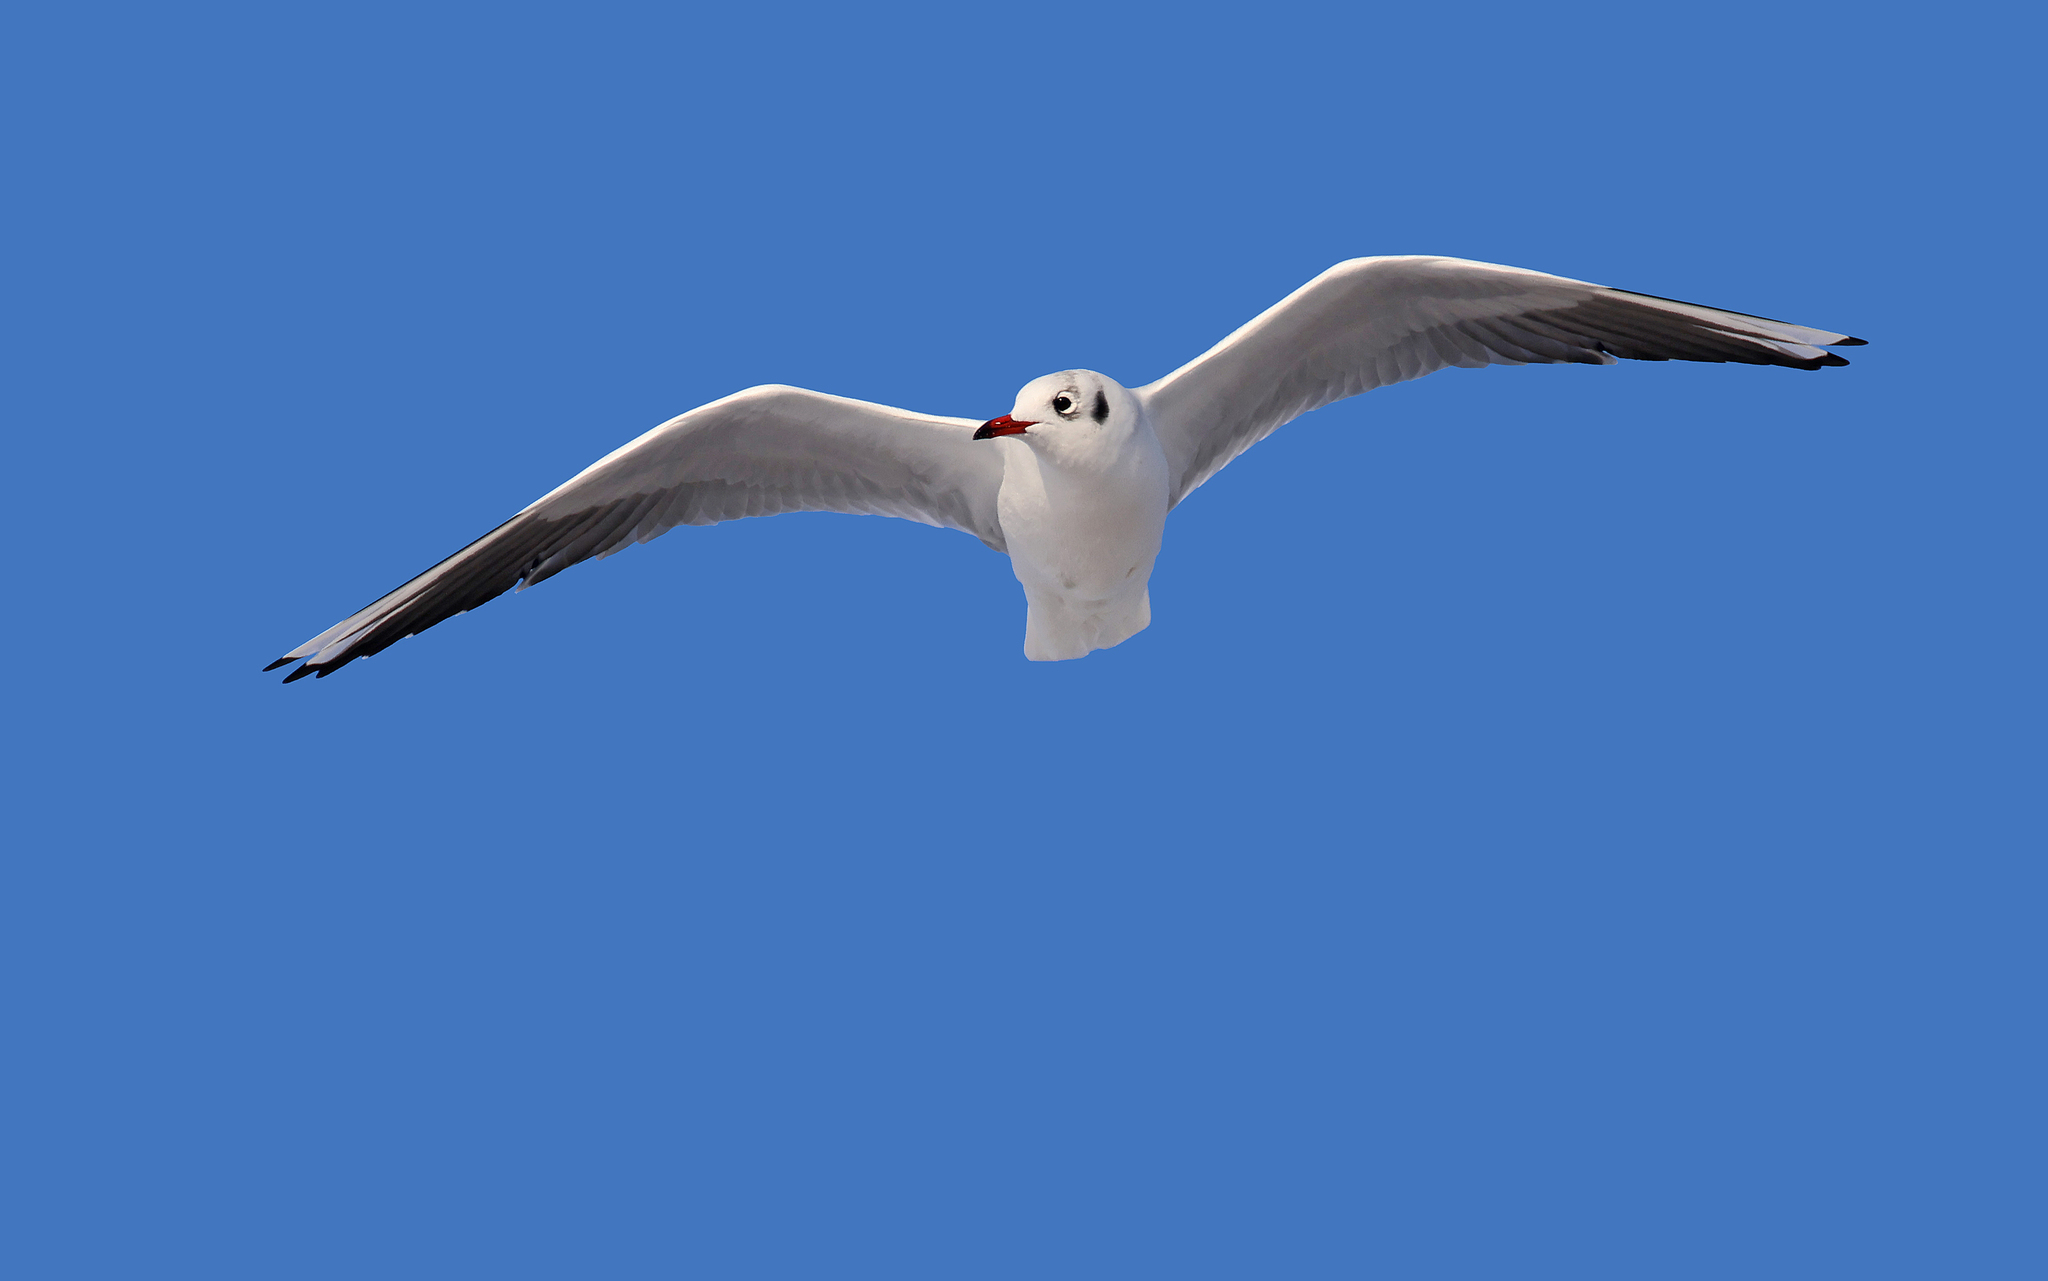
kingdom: Animalia
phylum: Chordata
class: Aves
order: Charadriiformes
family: Laridae
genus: Chroicocephalus
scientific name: Chroicocephalus ridibundus
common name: Black-headed gull
